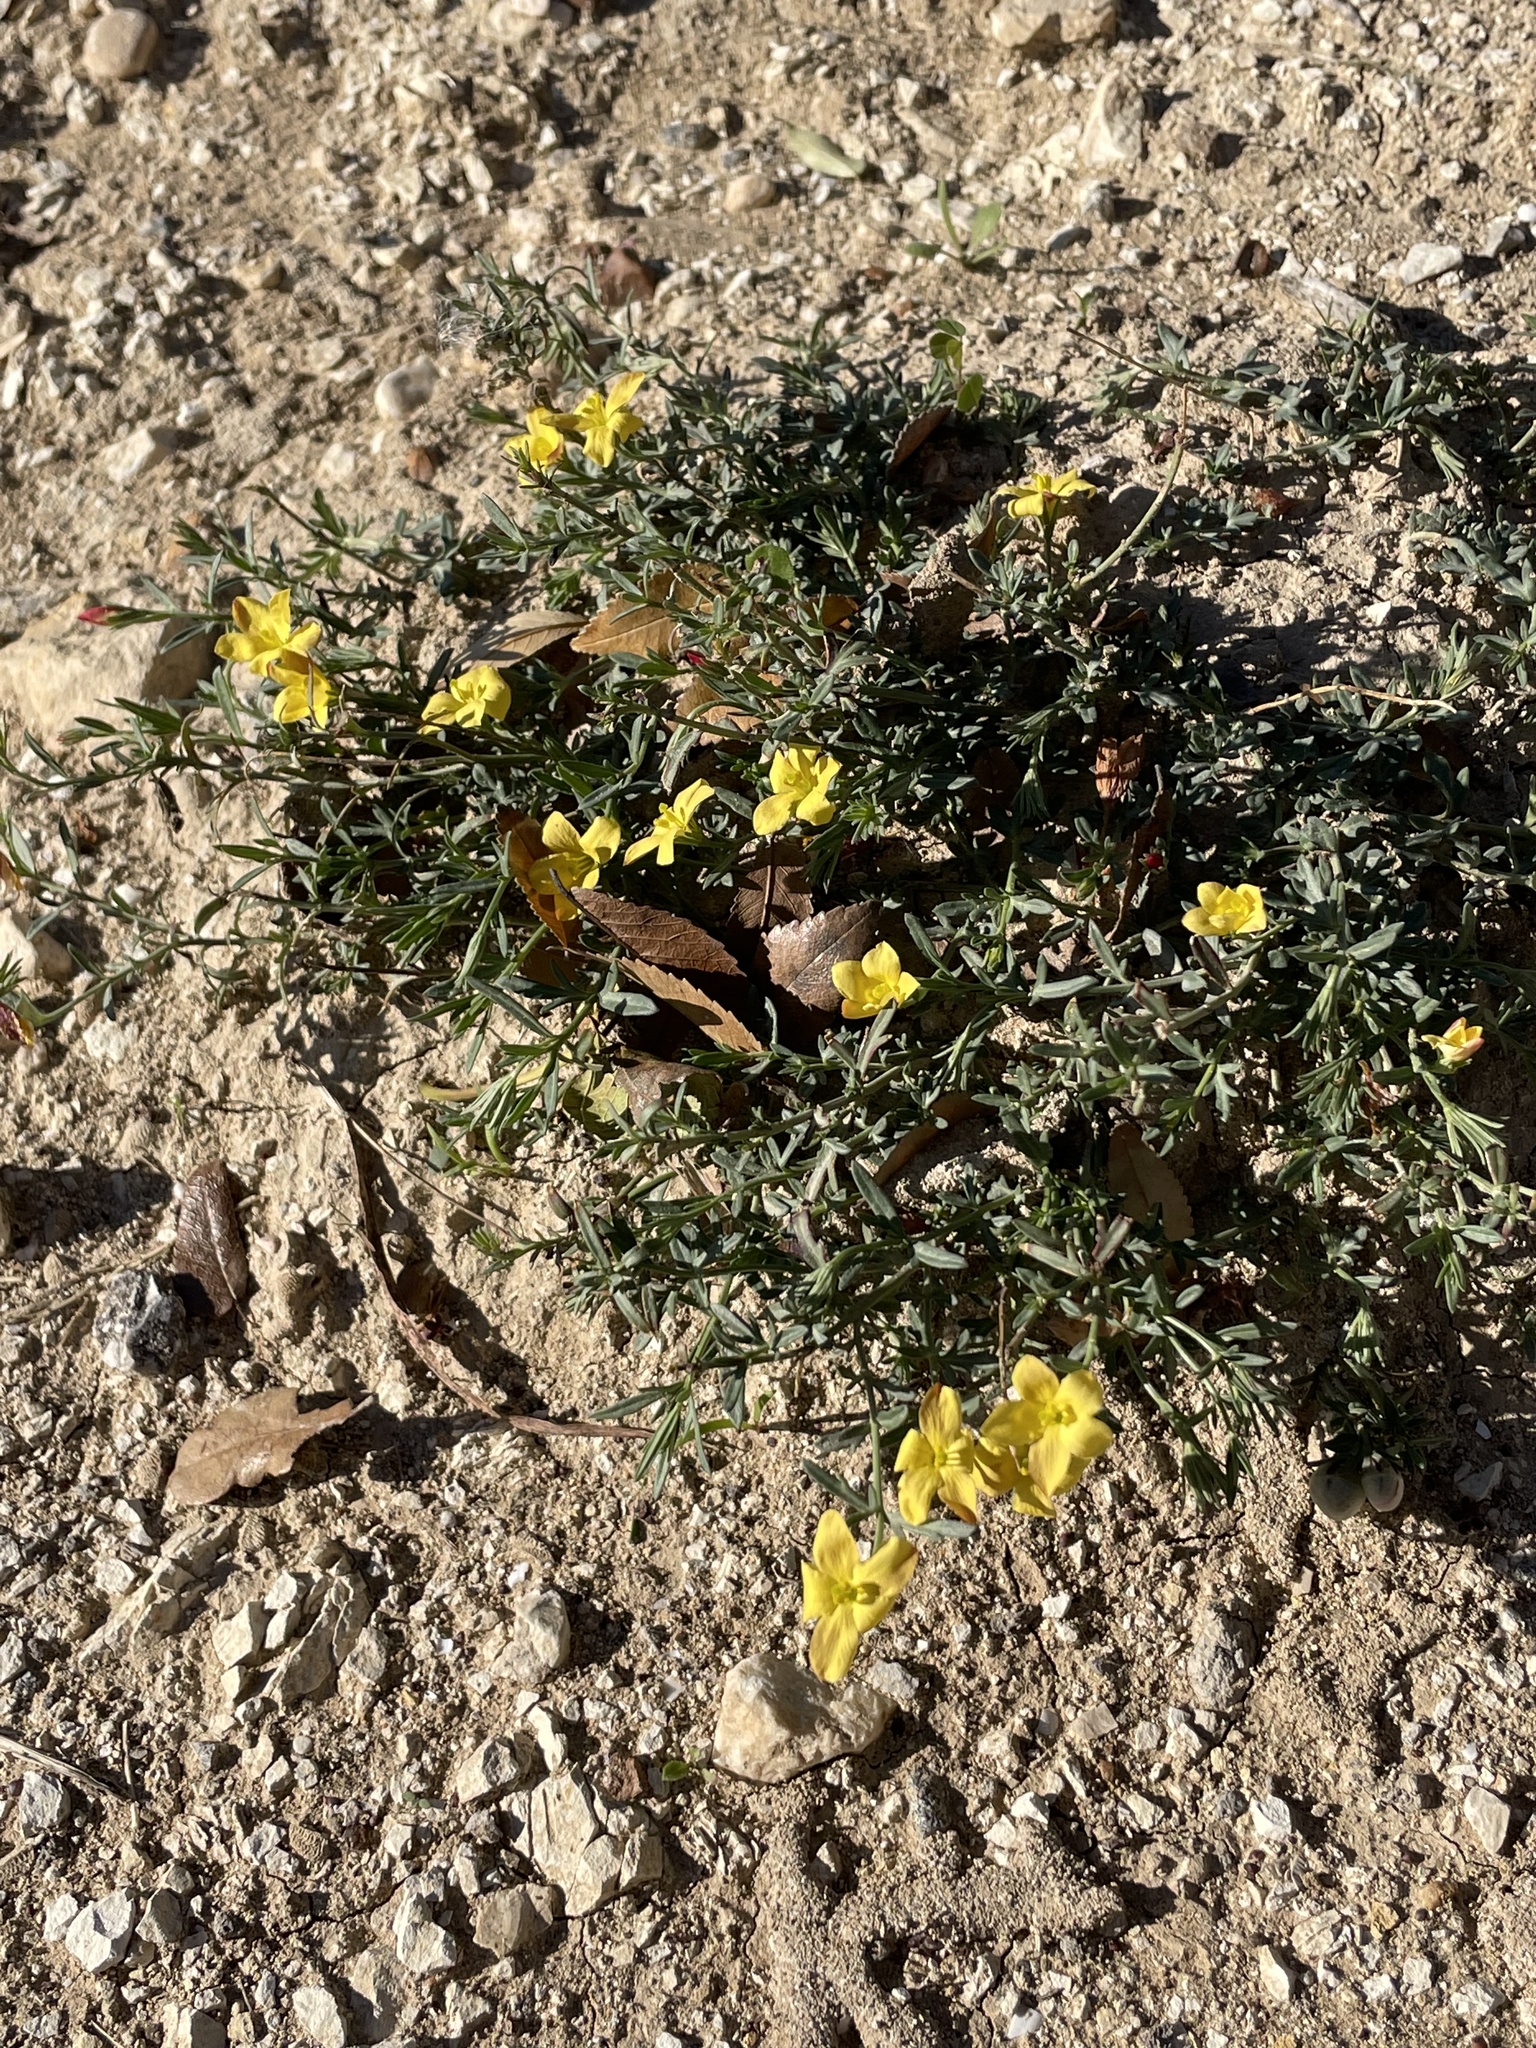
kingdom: Plantae
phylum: Tracheophyta
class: Magnoliopsida
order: Lamiales
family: Oleaceae
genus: Menodora
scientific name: Menodora heterophylla
